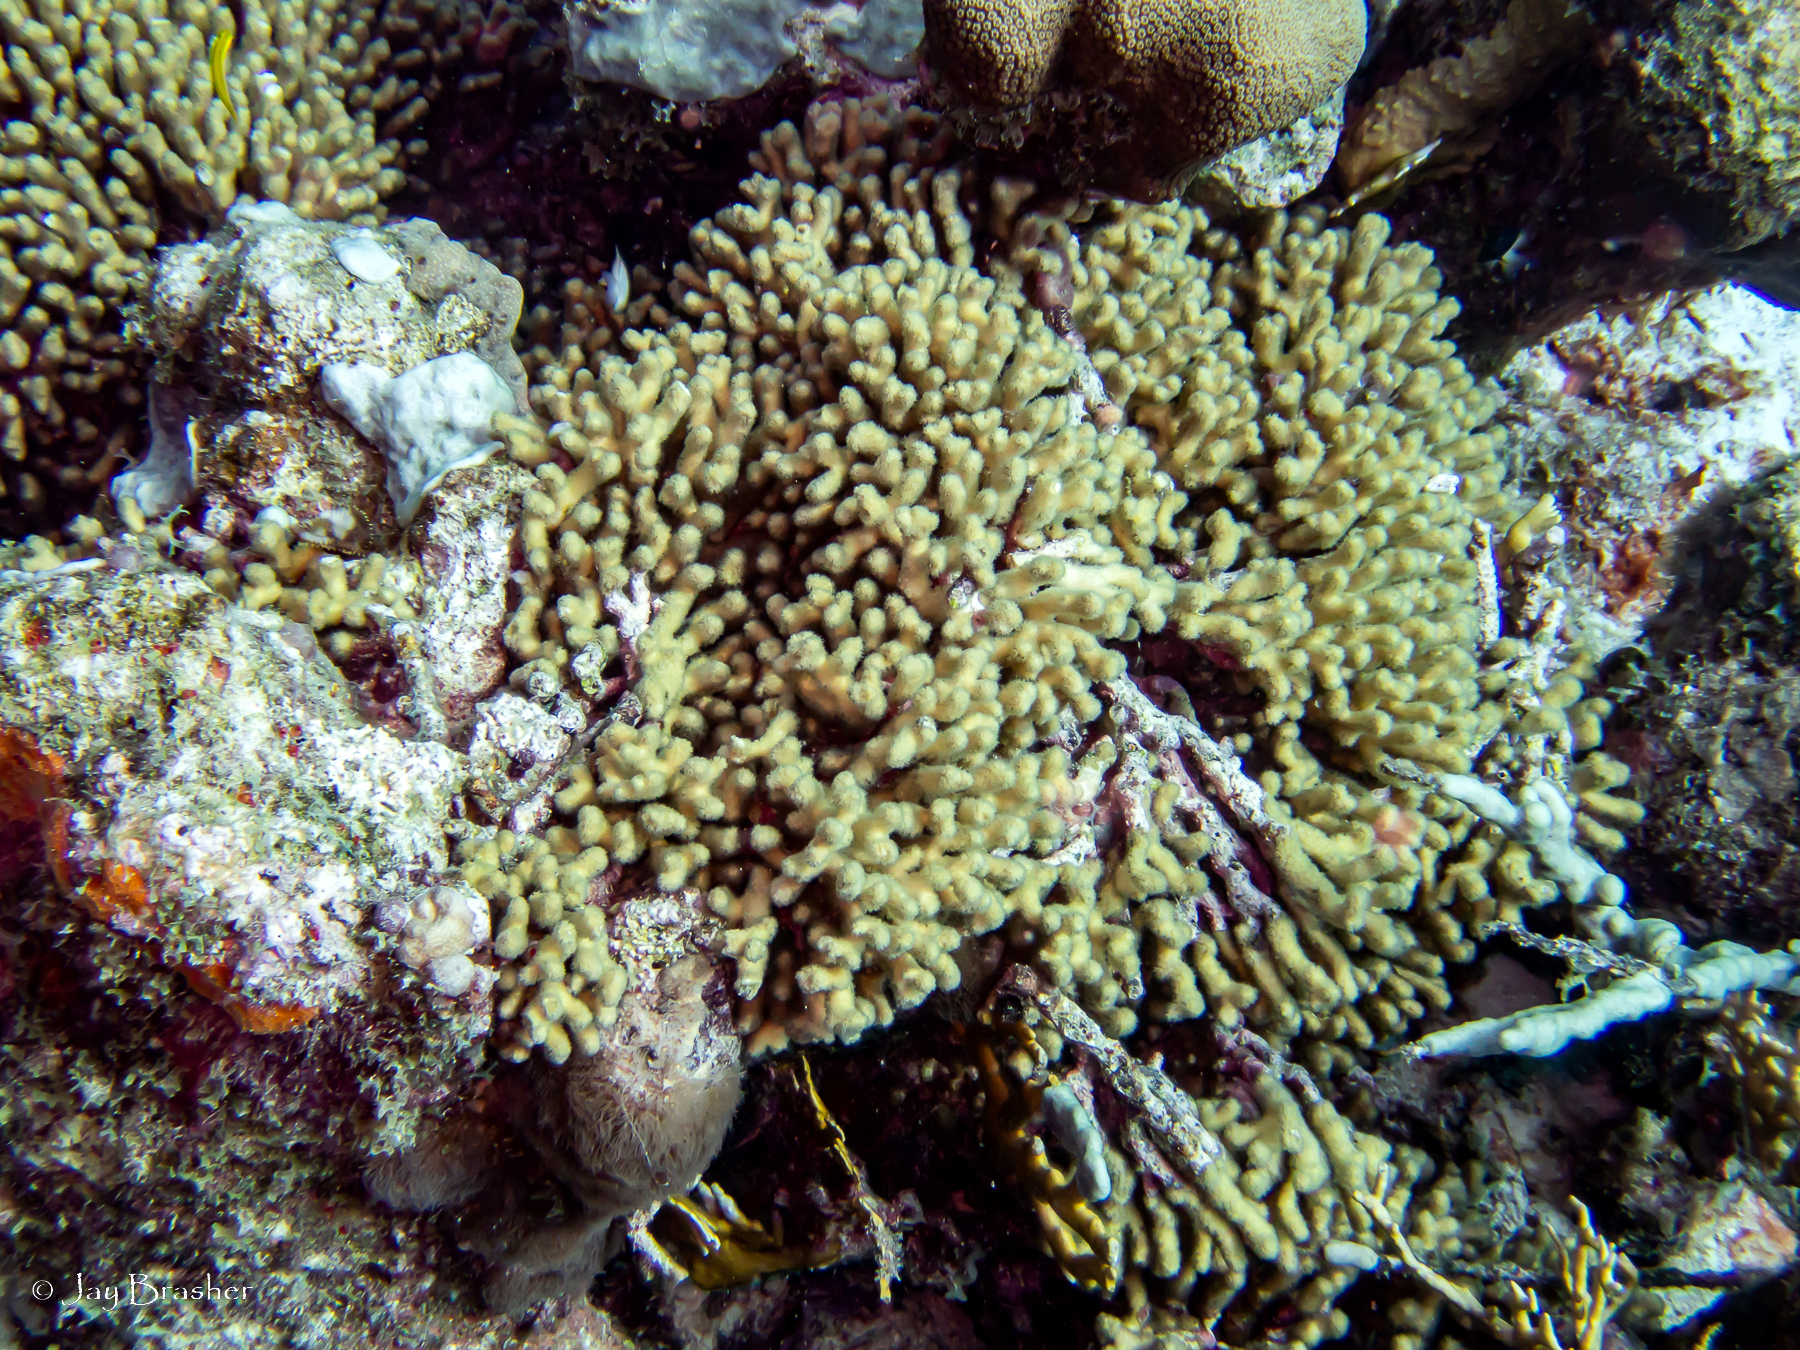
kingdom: Animalia
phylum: Cnidaria
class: Anthozoa
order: Scleractinia
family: Pocilloporidae
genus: Madracis
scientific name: Madracis auretenra
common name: Yellow pencil coral
